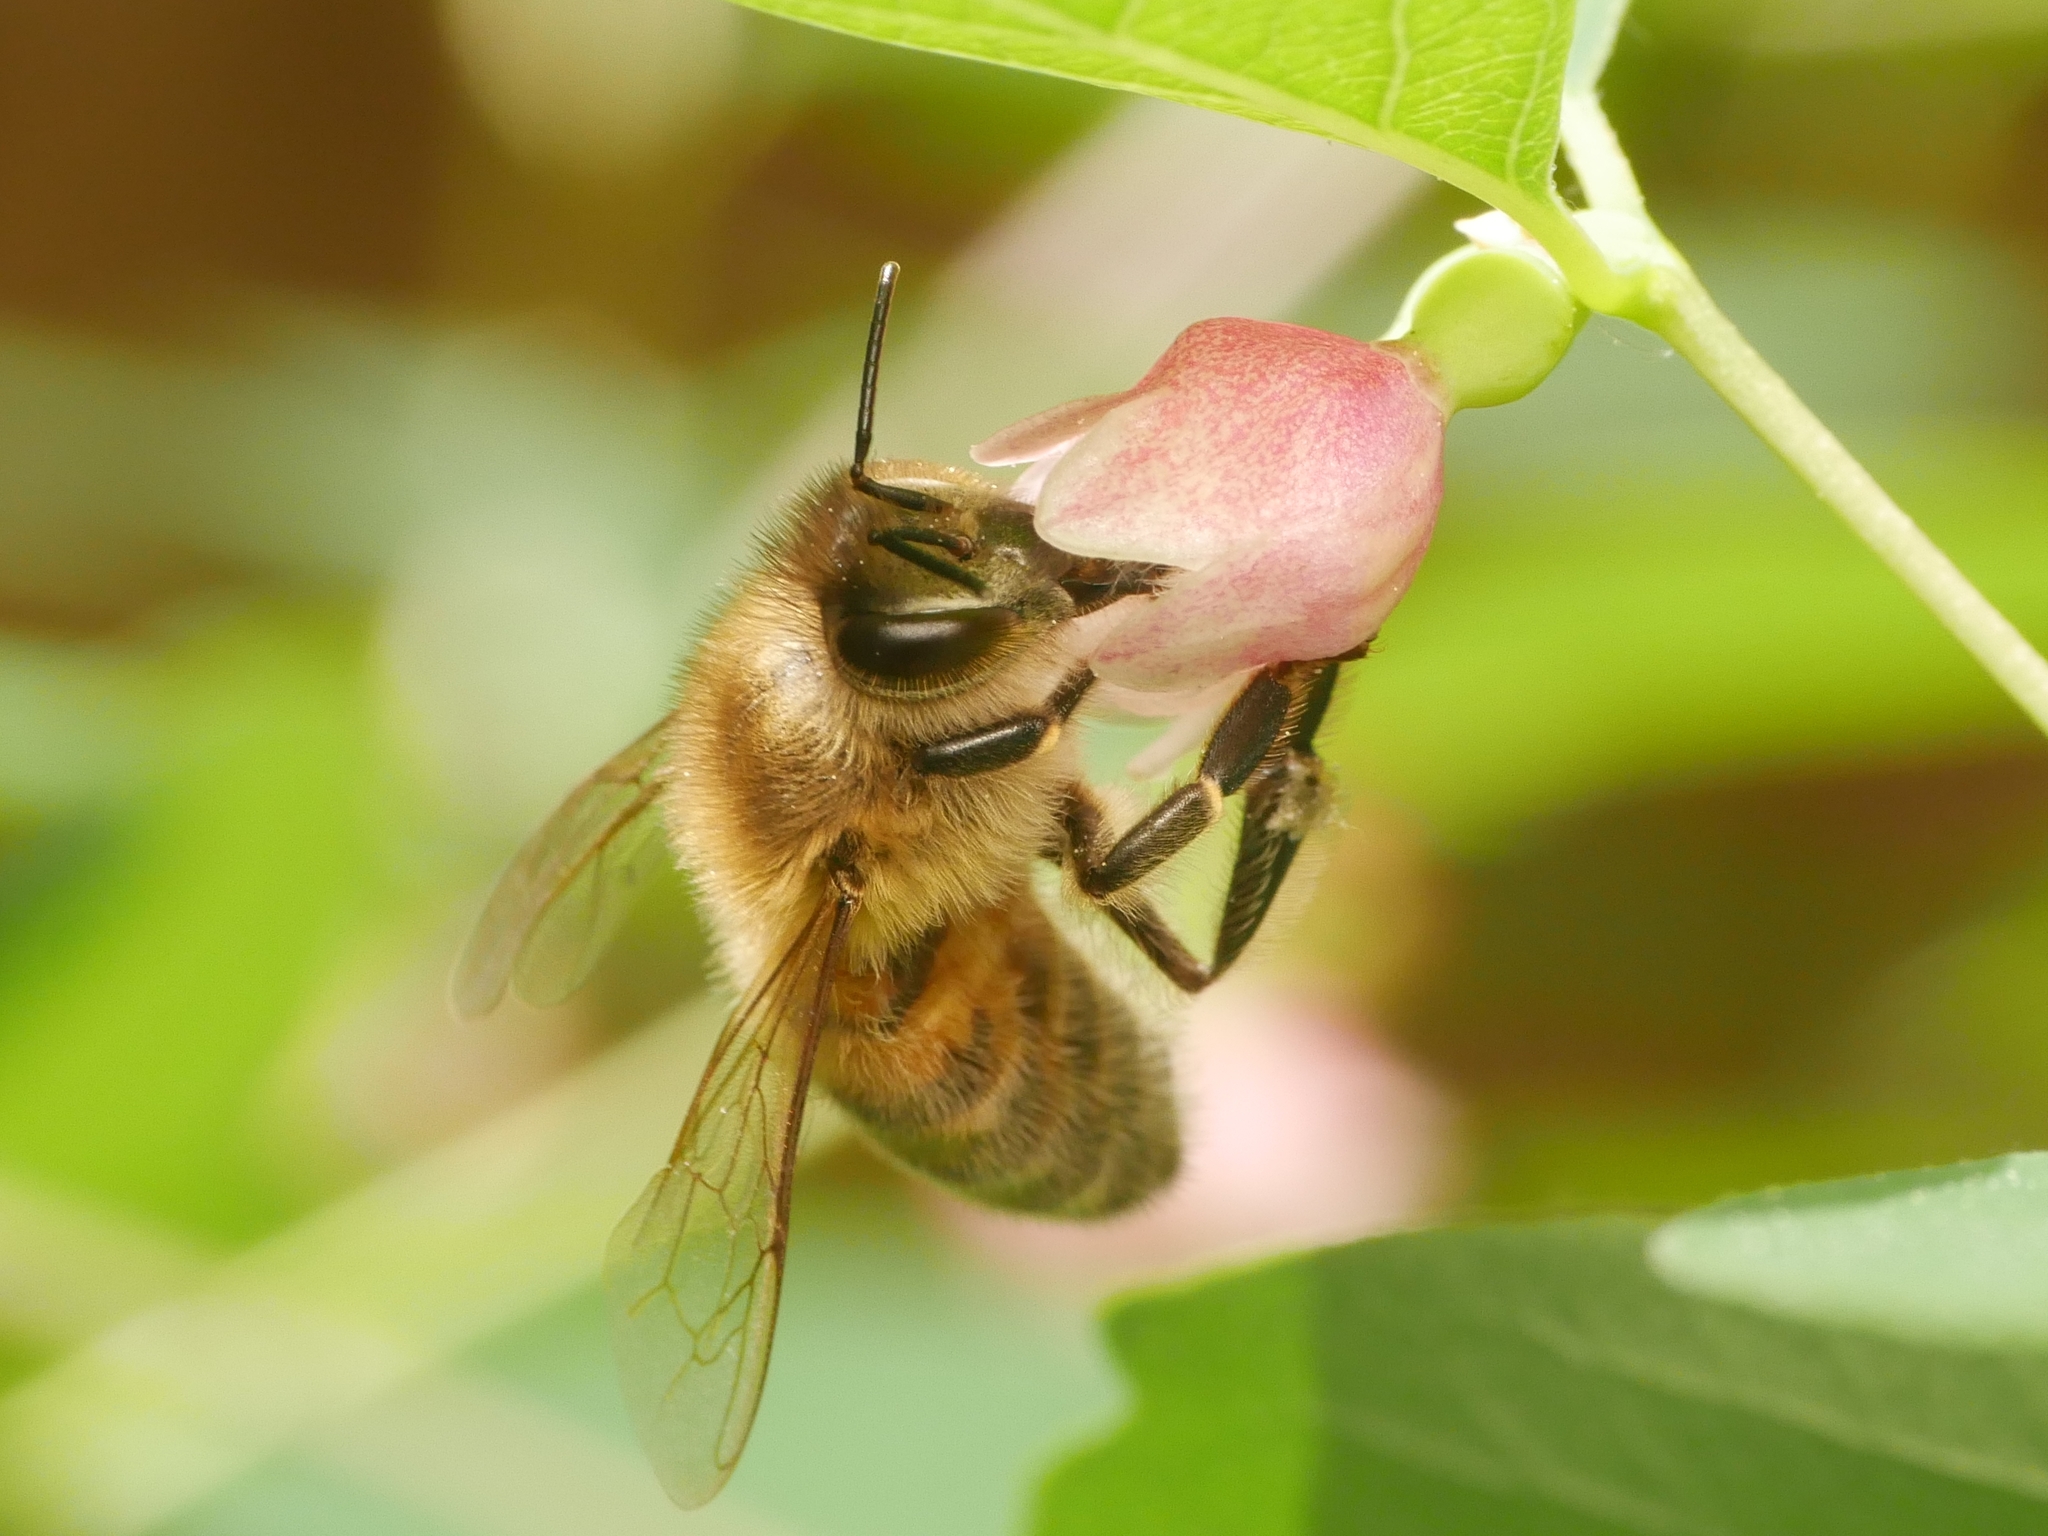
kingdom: Animalia
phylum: Arthropoda
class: Insecta
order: Hymenoptera
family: Apidae
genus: Apis
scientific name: Apis mellifera
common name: Honey bee
